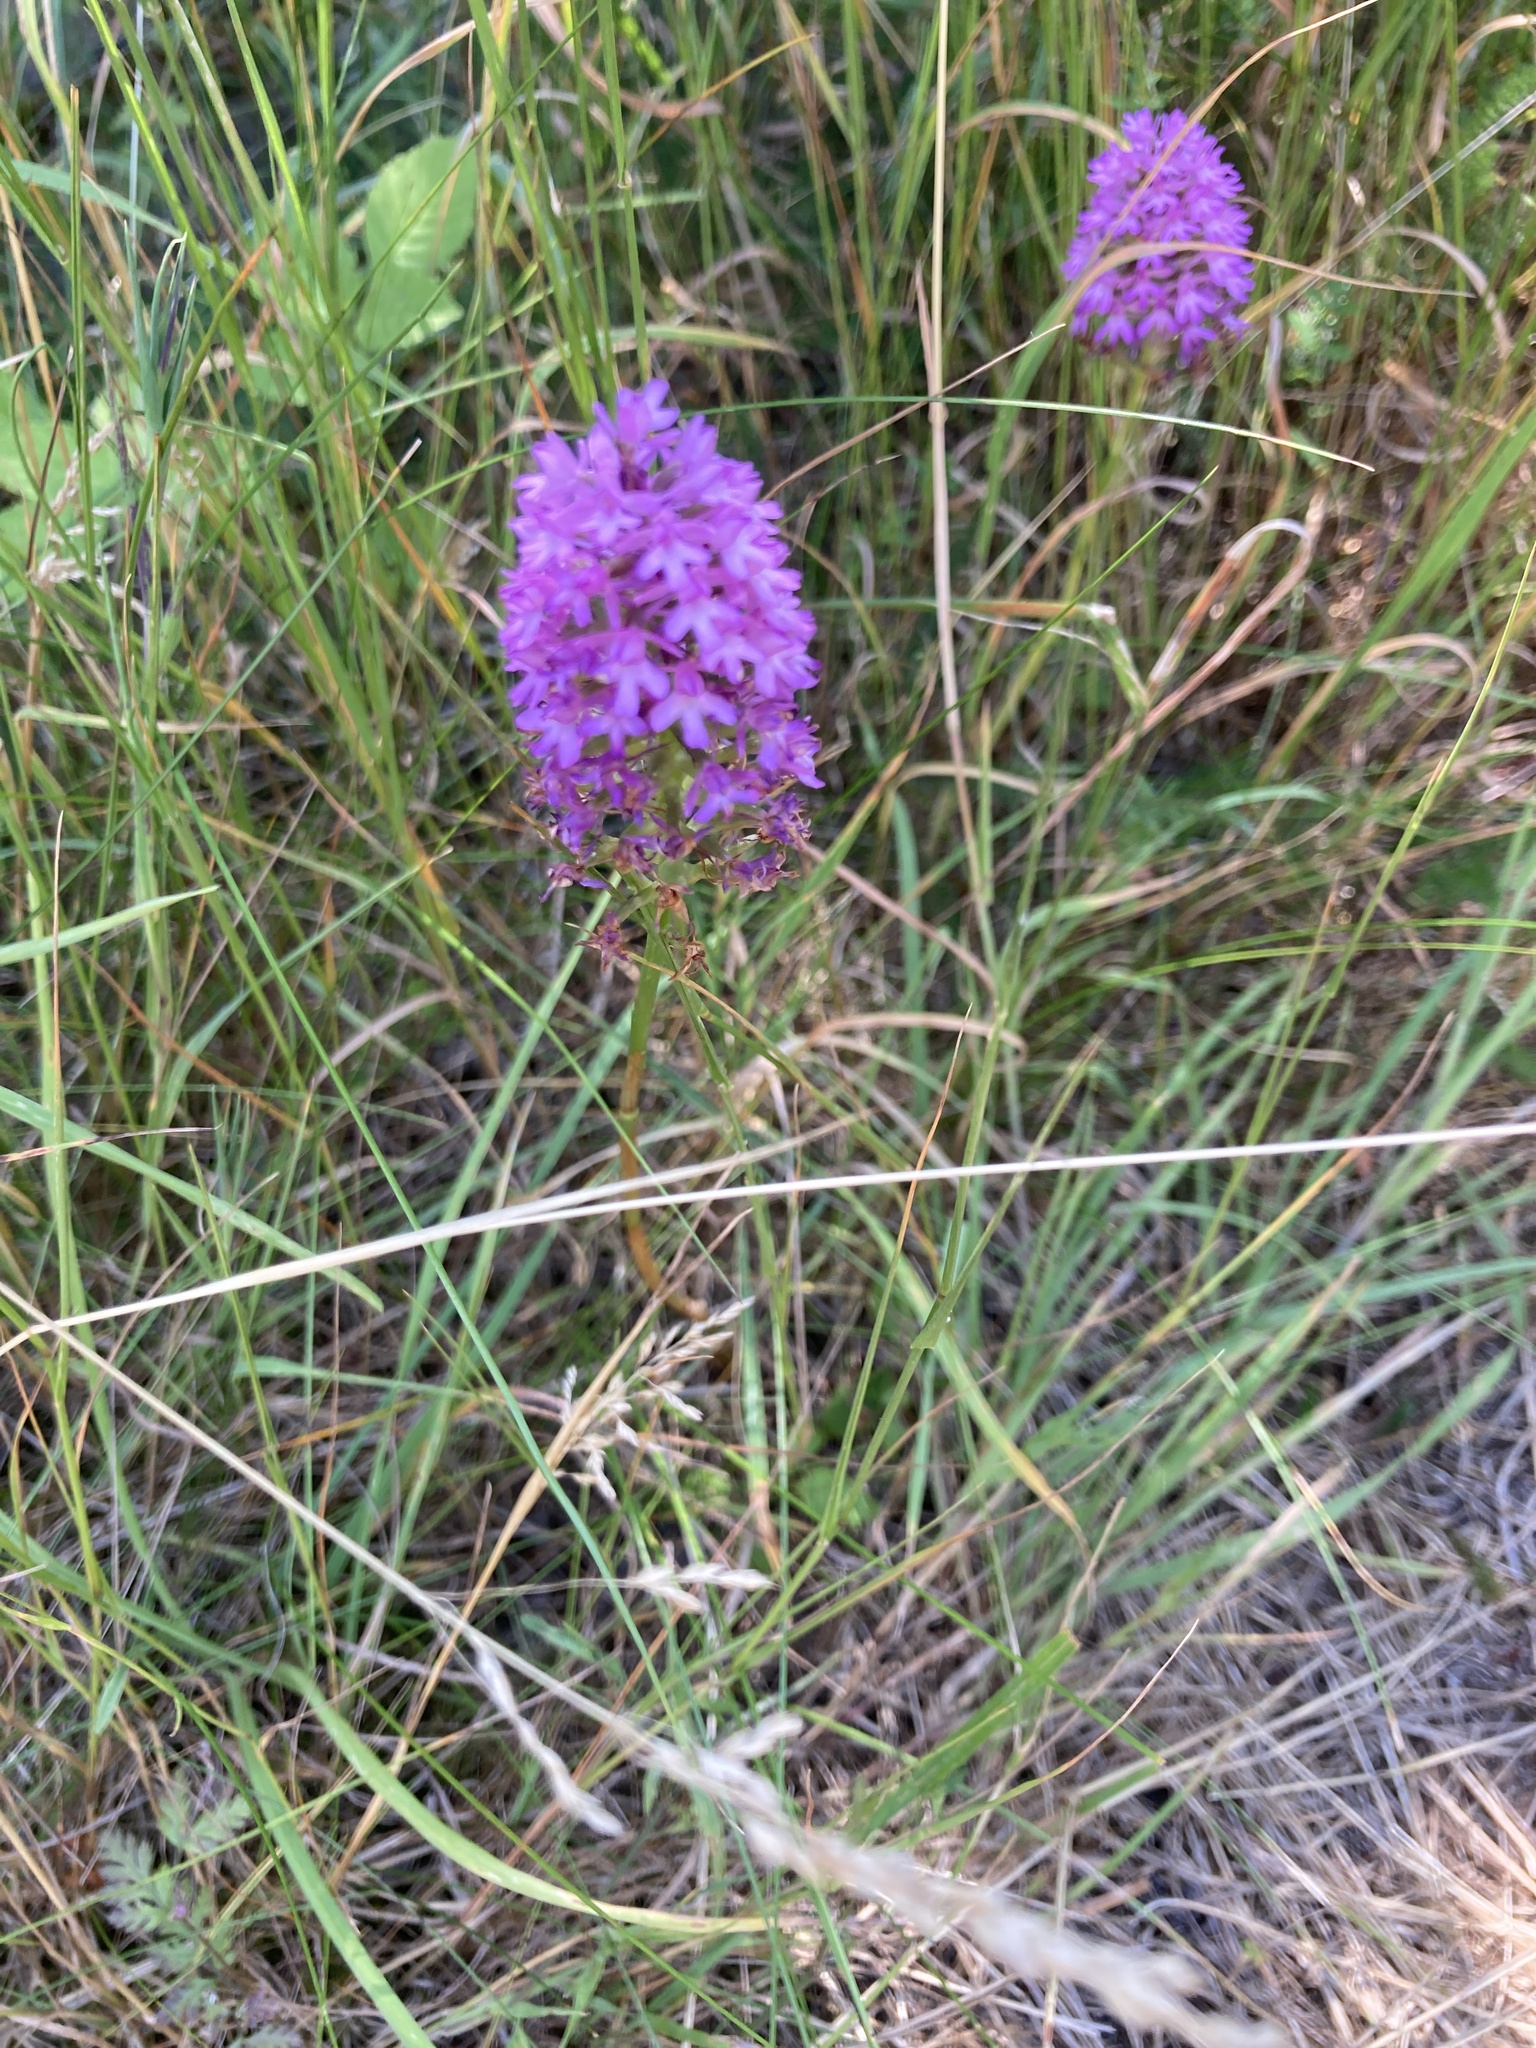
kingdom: Plantae
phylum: Tracheophyta
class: Liliopsida
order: Asparagales
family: Orchidaceae
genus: Anacamptis
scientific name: Anacamptis pyramidalis
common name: Pyramidal orchid
